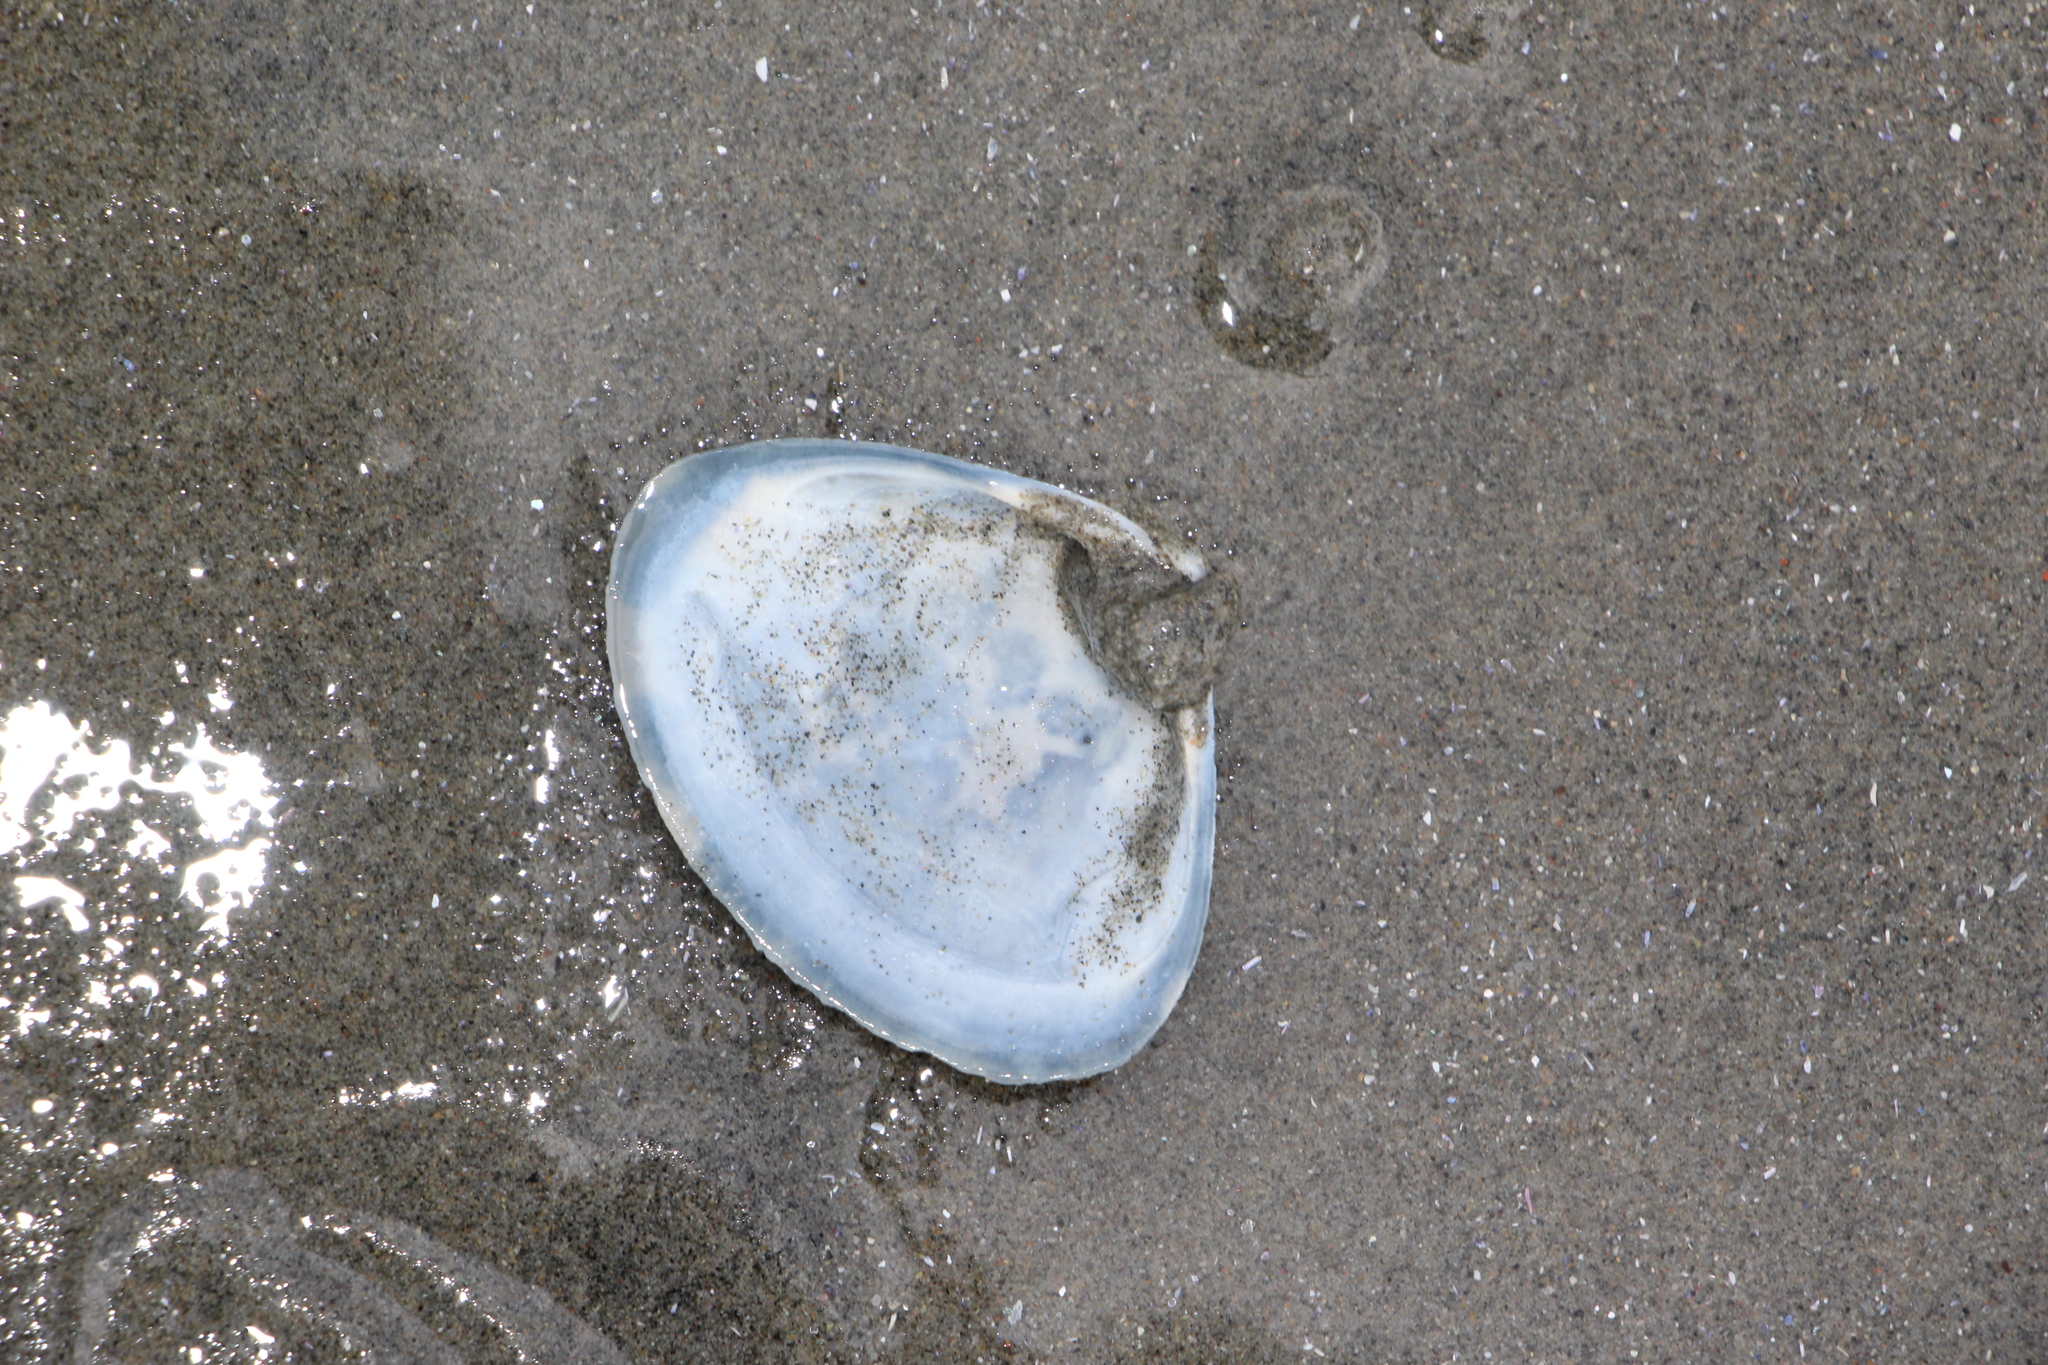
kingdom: Animalia
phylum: Mollusca
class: Bivalvia
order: Venerida
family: Mactridae
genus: Spisula
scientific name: Spisula solidissima
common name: Atlantic surf clam
